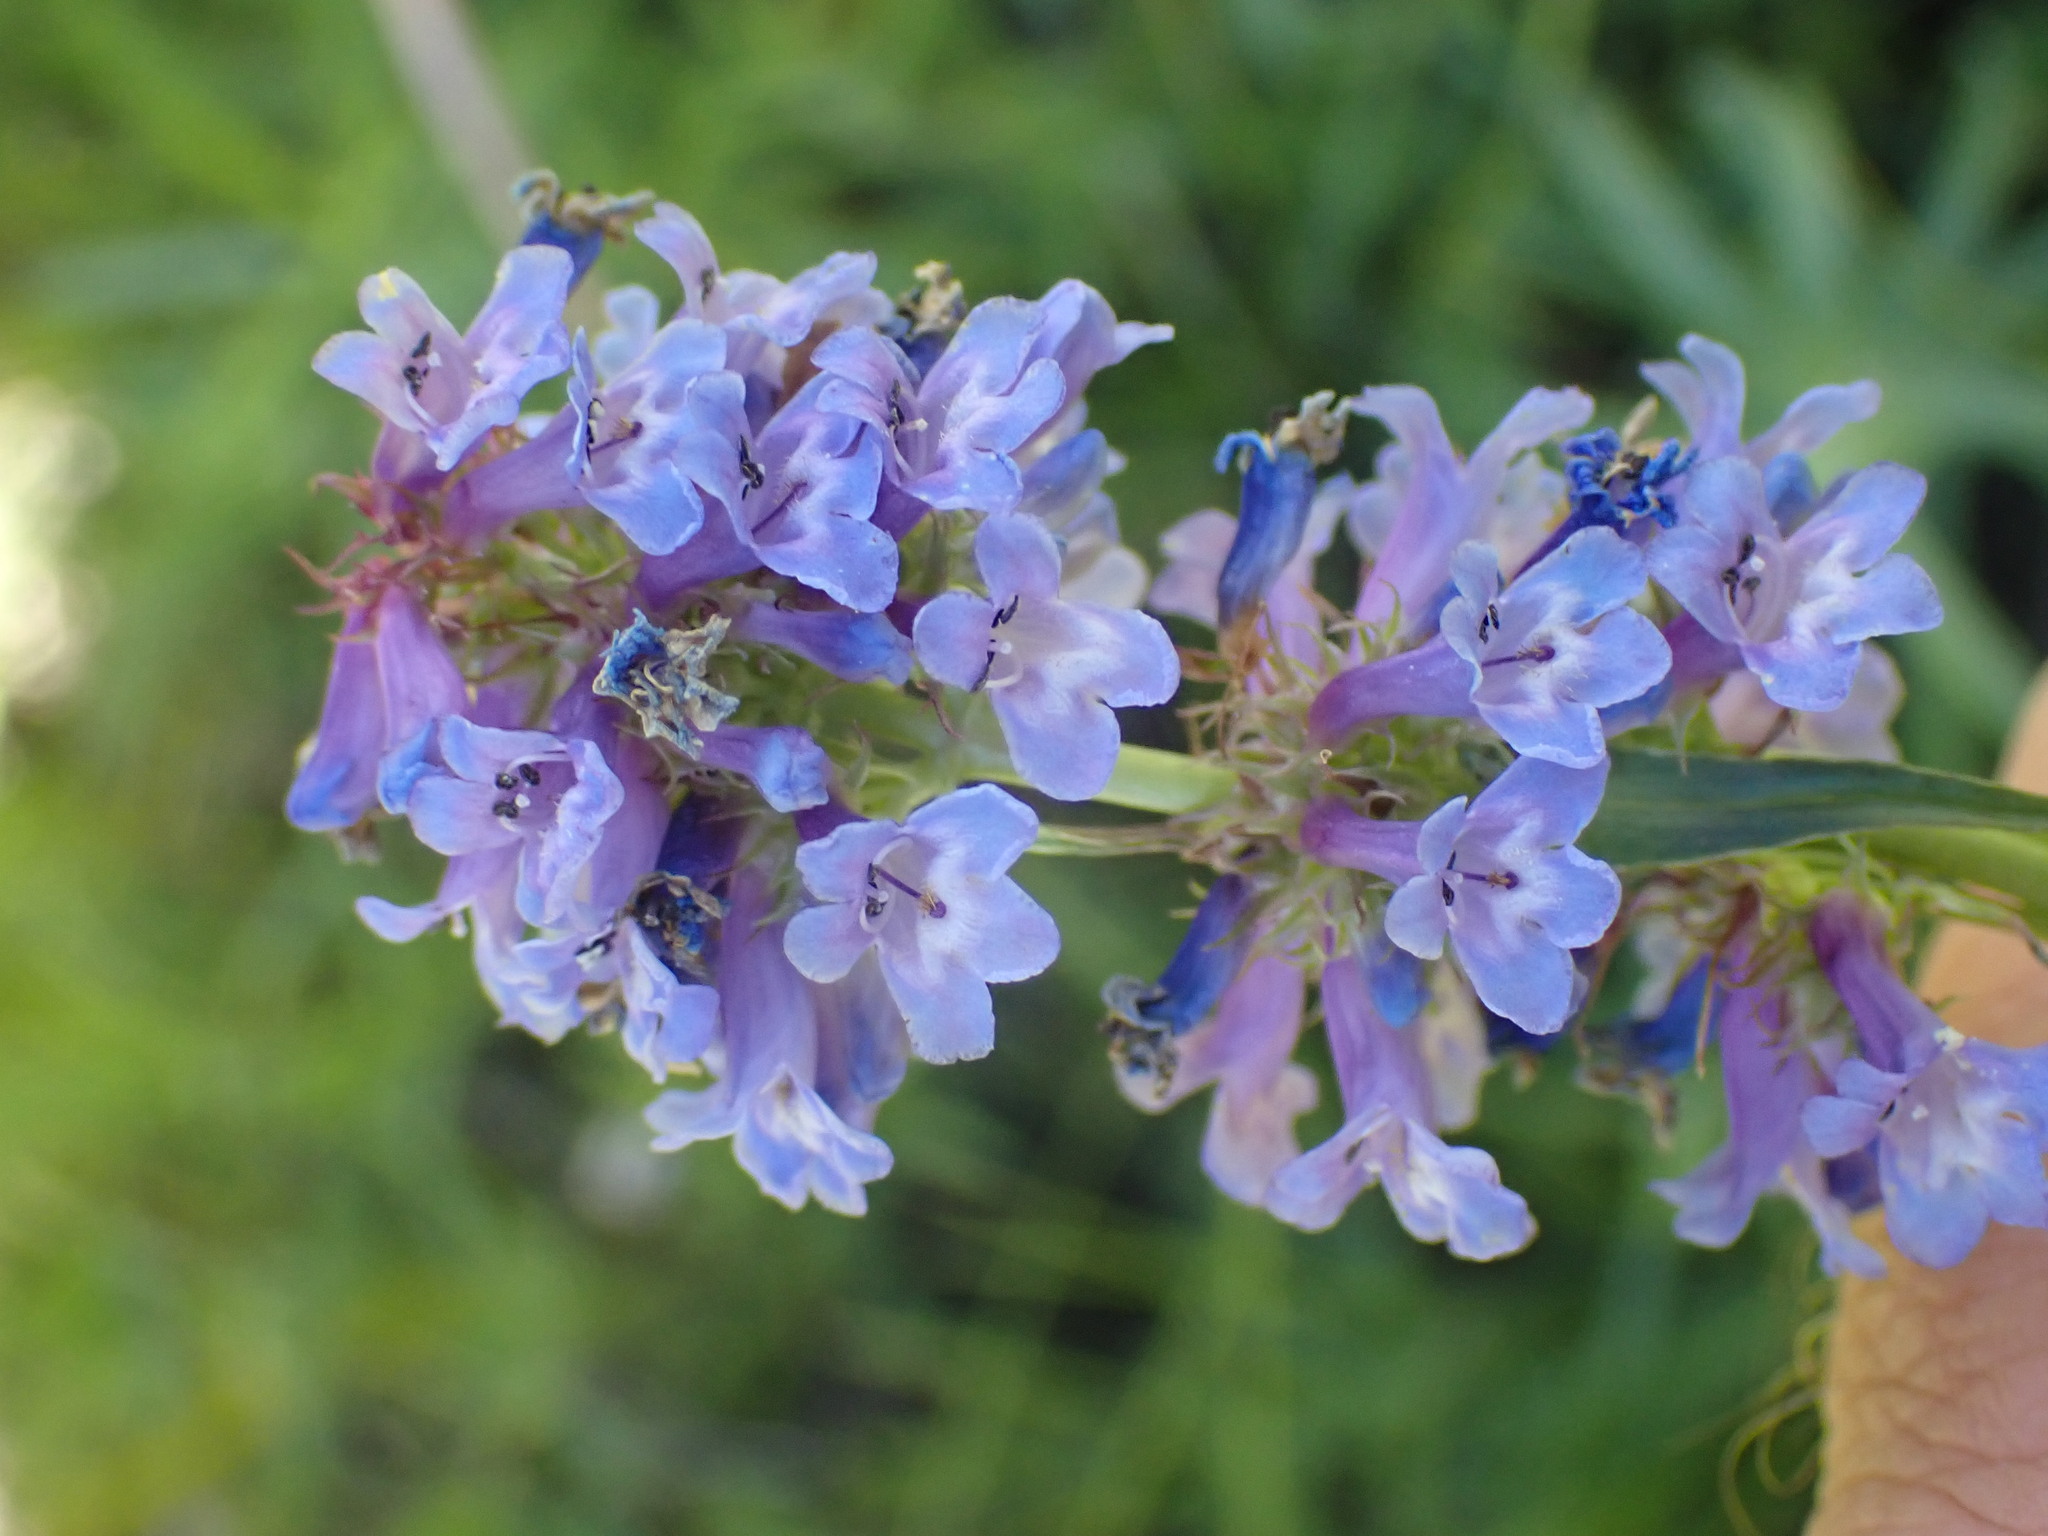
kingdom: Plantae
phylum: Tracheophyta
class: Magnoliopsida
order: Lamiales
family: Plantaginaceae
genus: Penstemon
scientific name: Penstemon procerus
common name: Small-flower penstemon
